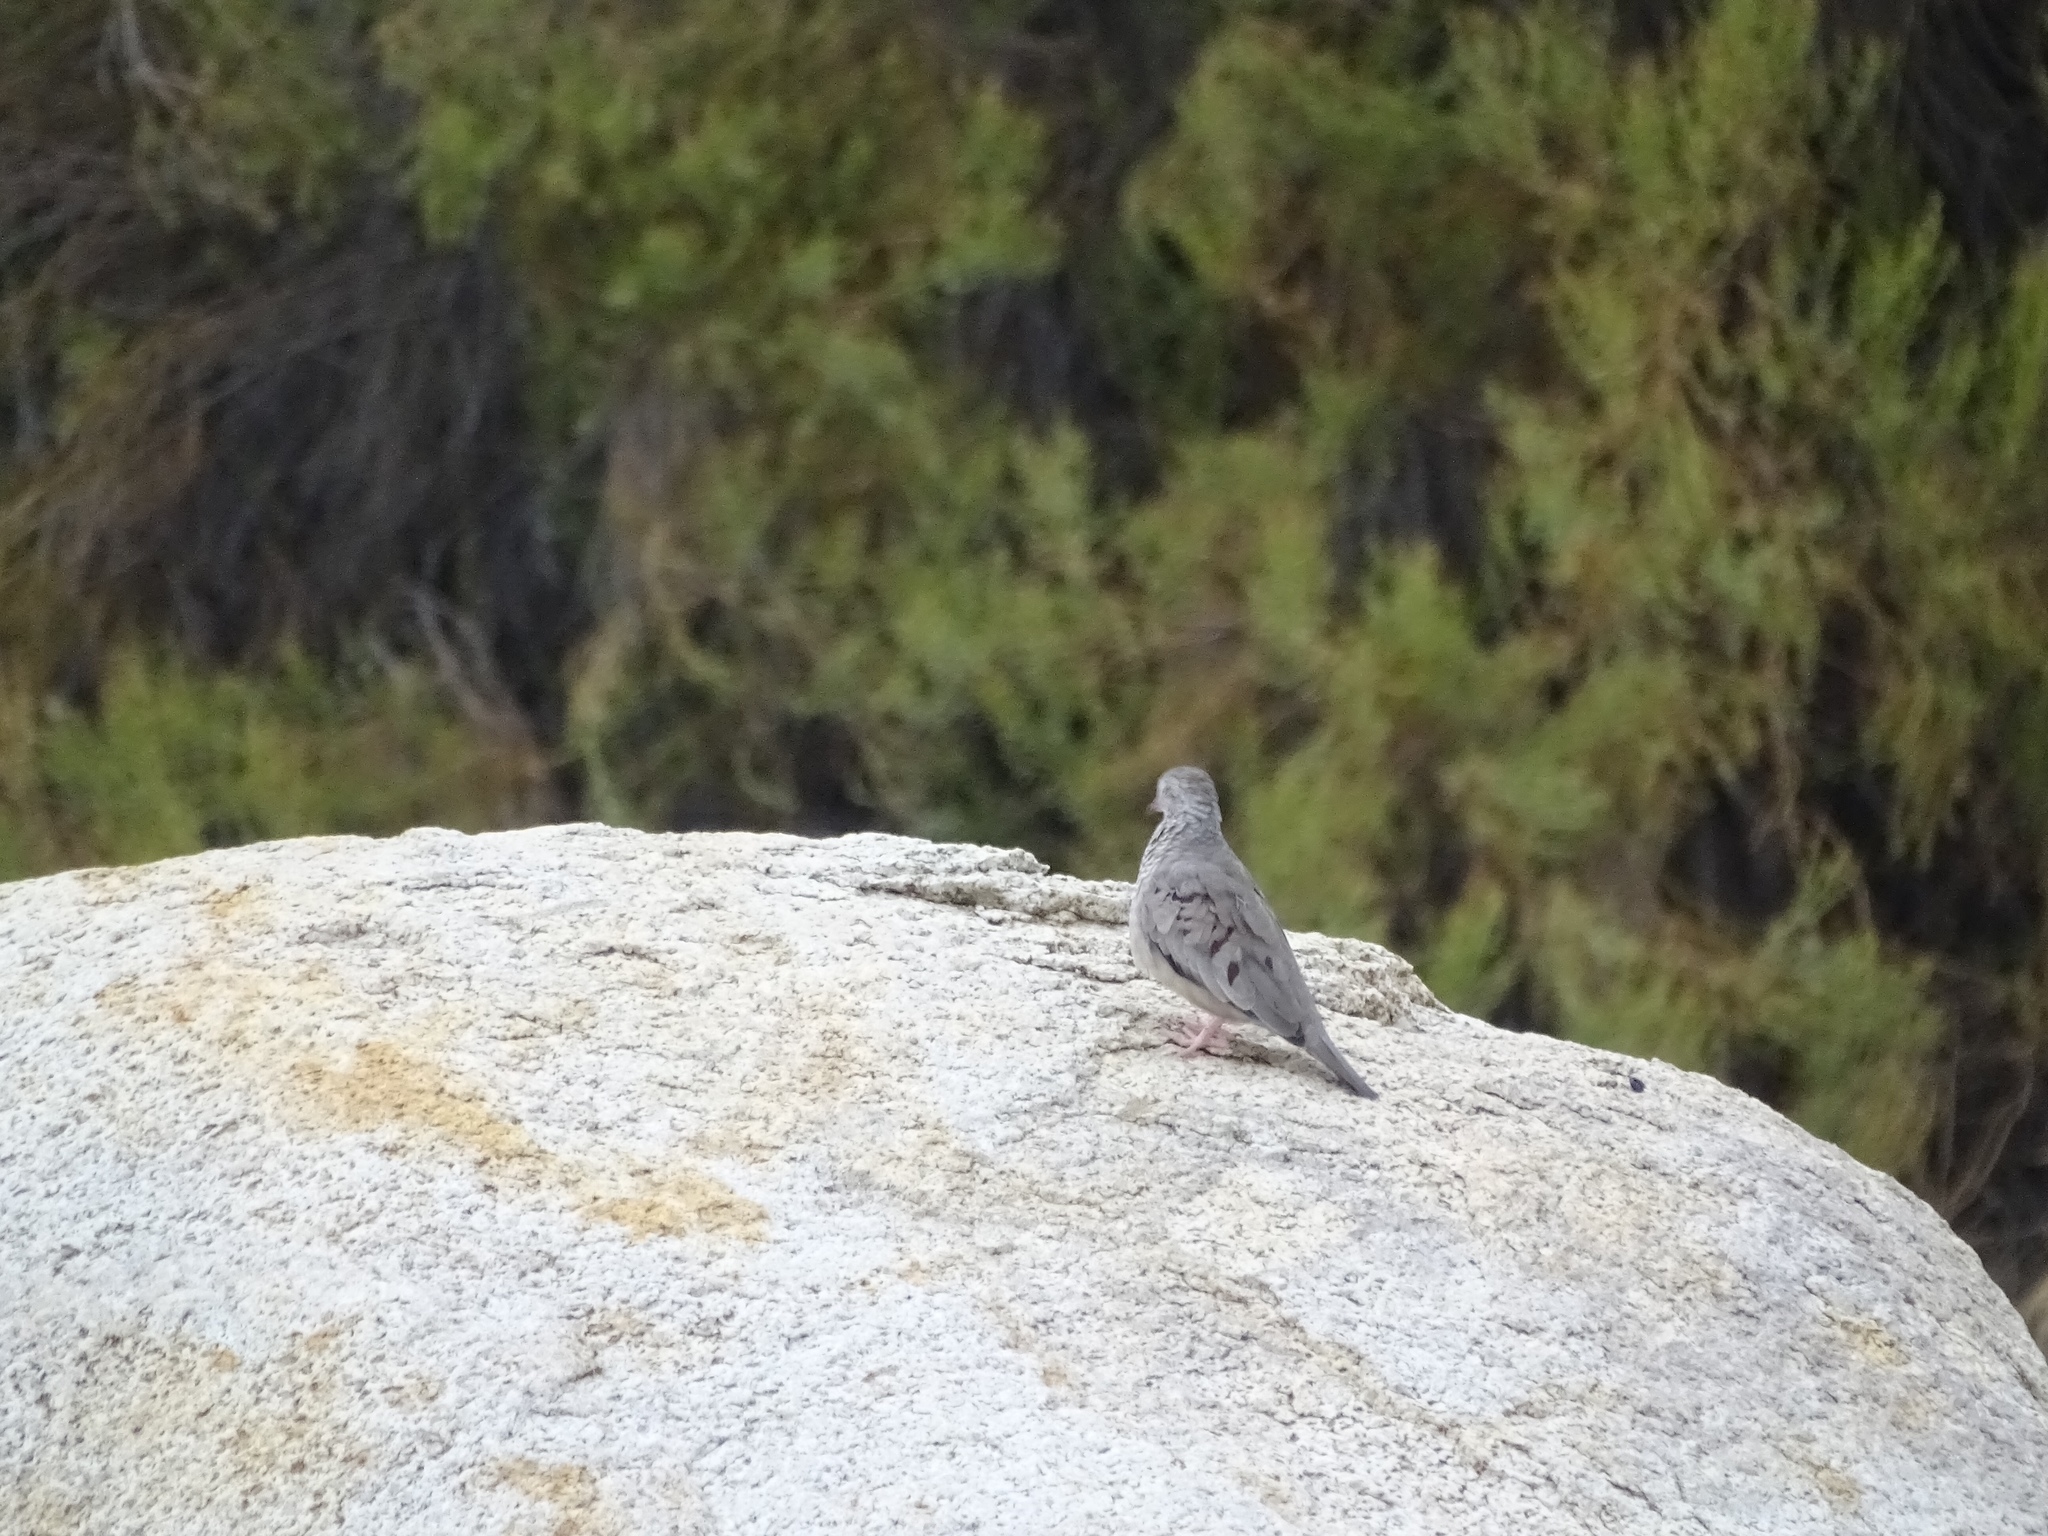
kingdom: Animalia
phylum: Chordata
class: Aves
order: Columbiformes
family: Columbidae
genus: Columbina
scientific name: Columbina passerina
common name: Common ground-dove
